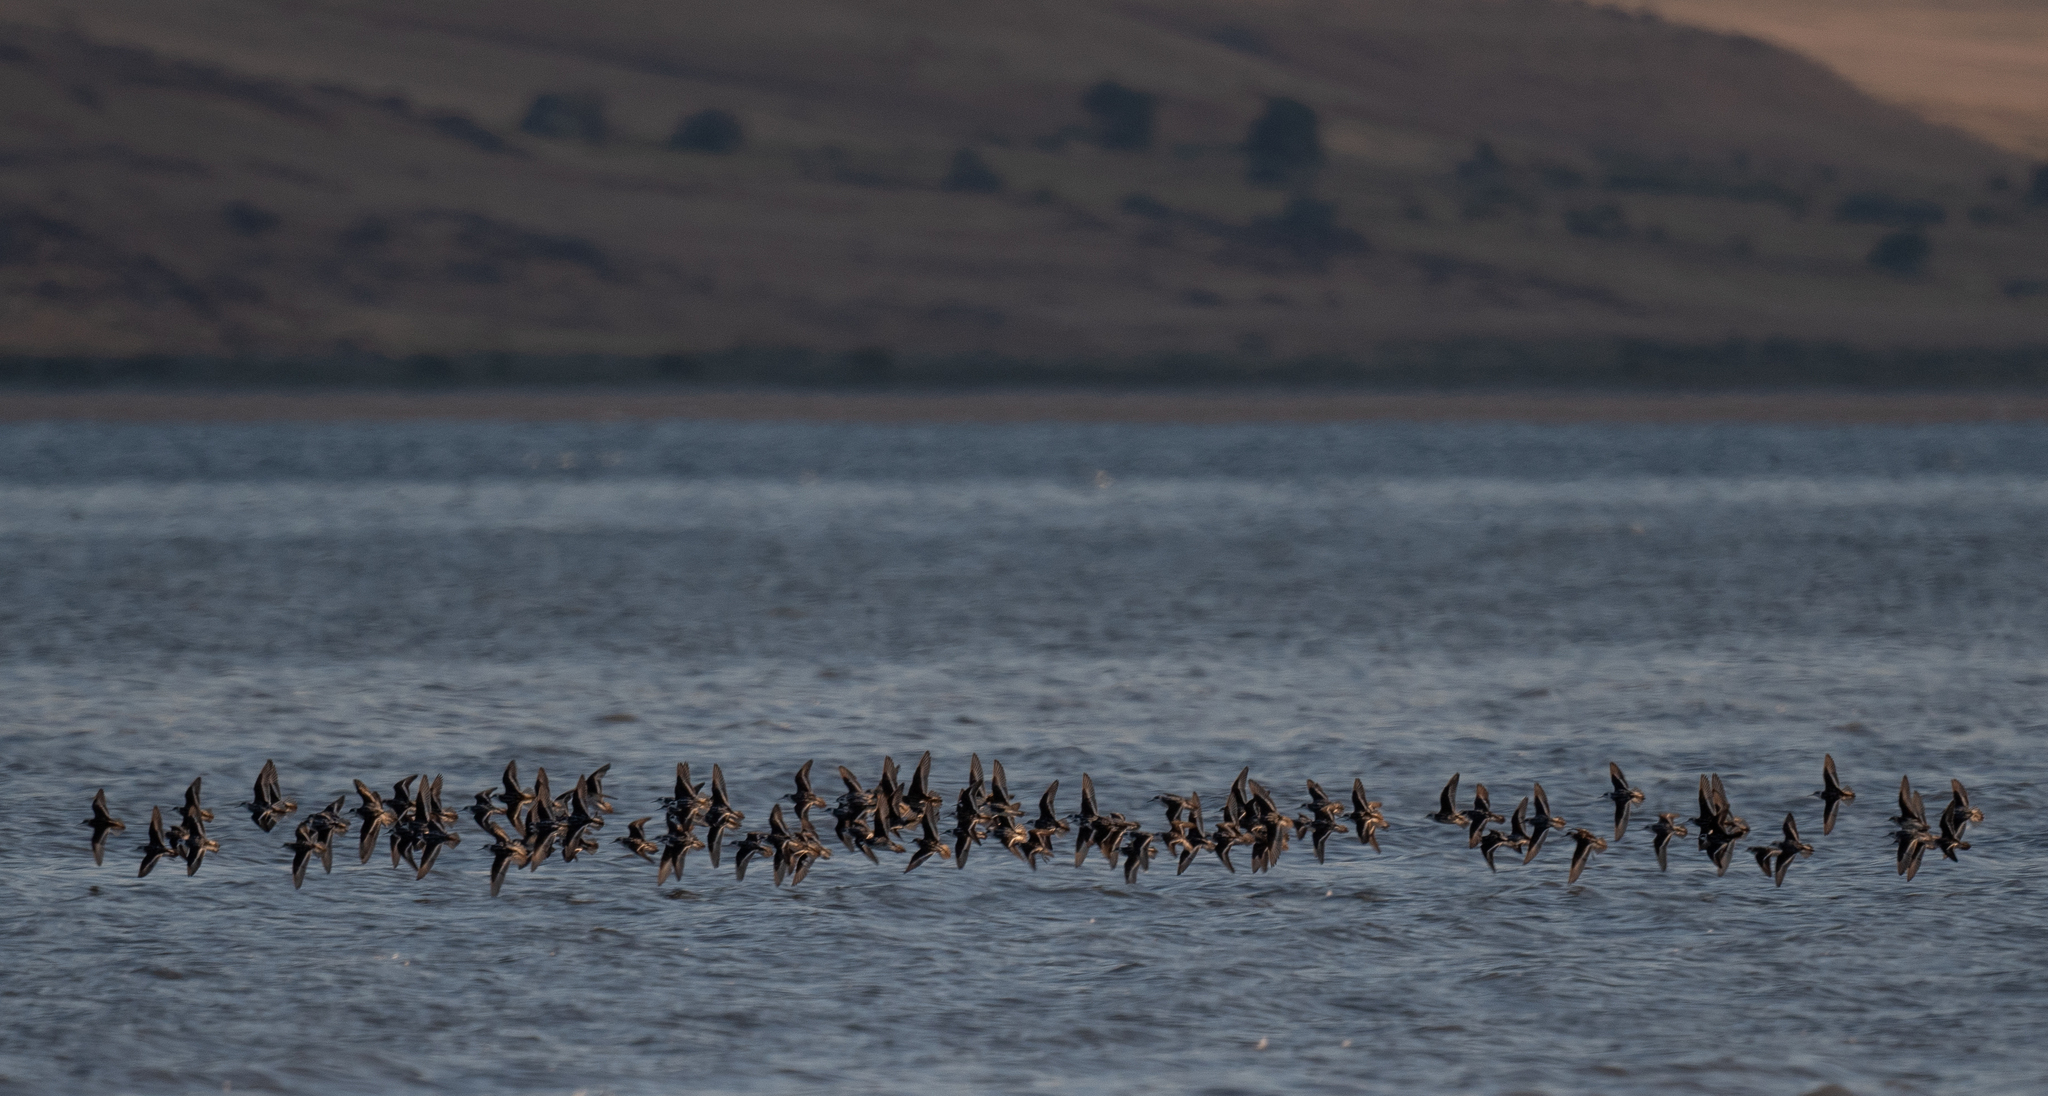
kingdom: Animalia
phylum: Chordata
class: Aves
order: Charadriiformes
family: Scolopacidae
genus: Phalaropus
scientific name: Phalaropus lobatus
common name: Red-necked phalarope
